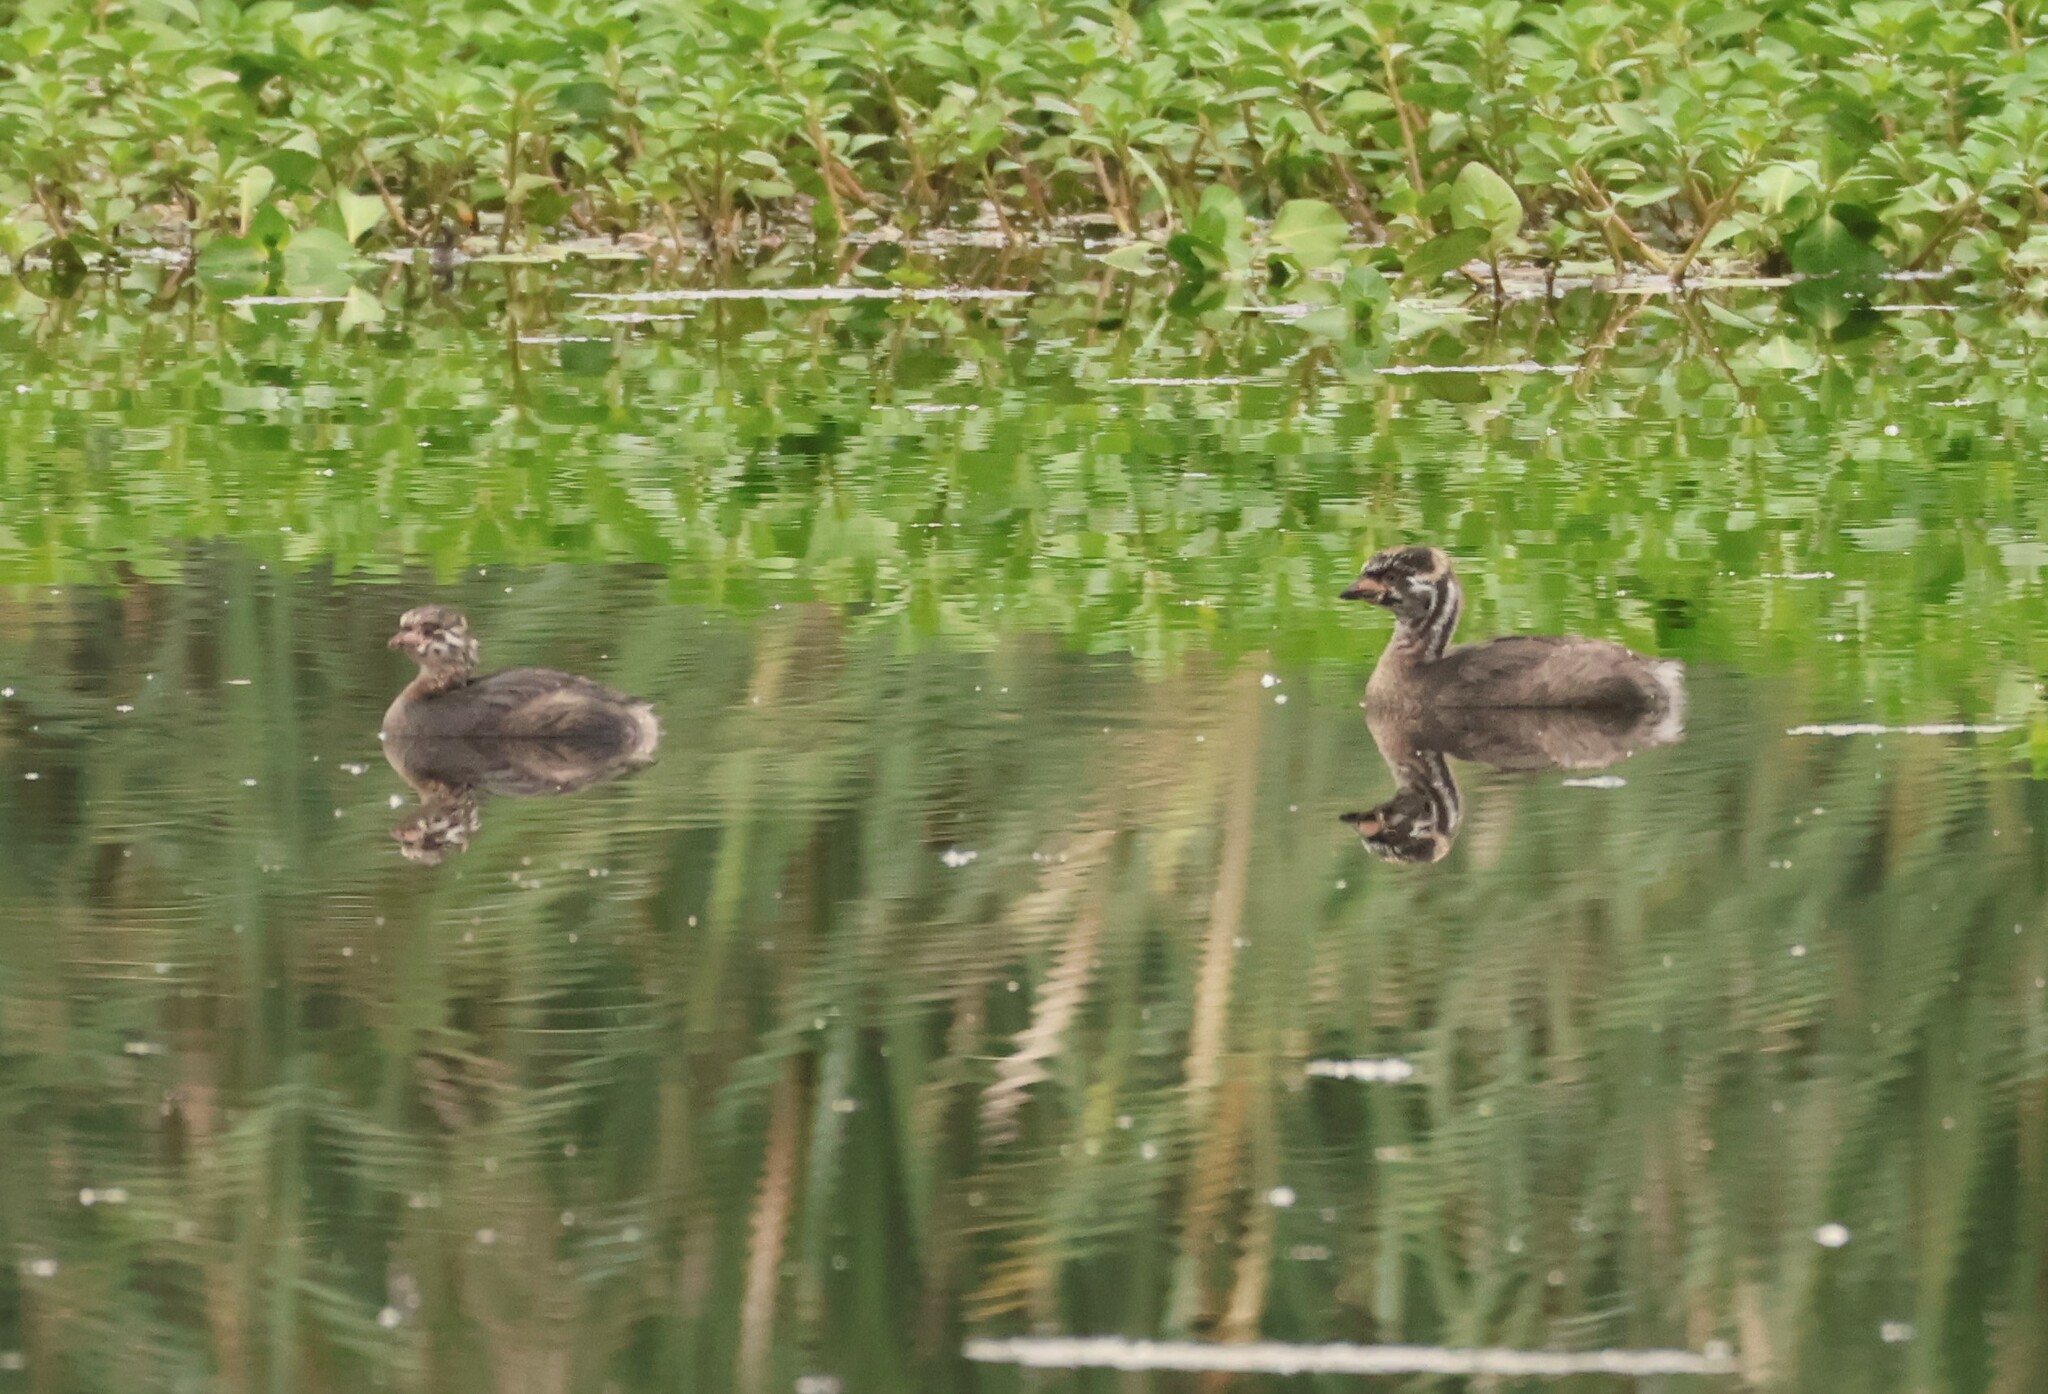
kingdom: Animalia
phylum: Chordata
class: Aves
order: Podicipediformes
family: Podicipedidae
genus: Podilymbus
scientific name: Podilymbus podiceps
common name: Pied-billed grebe
